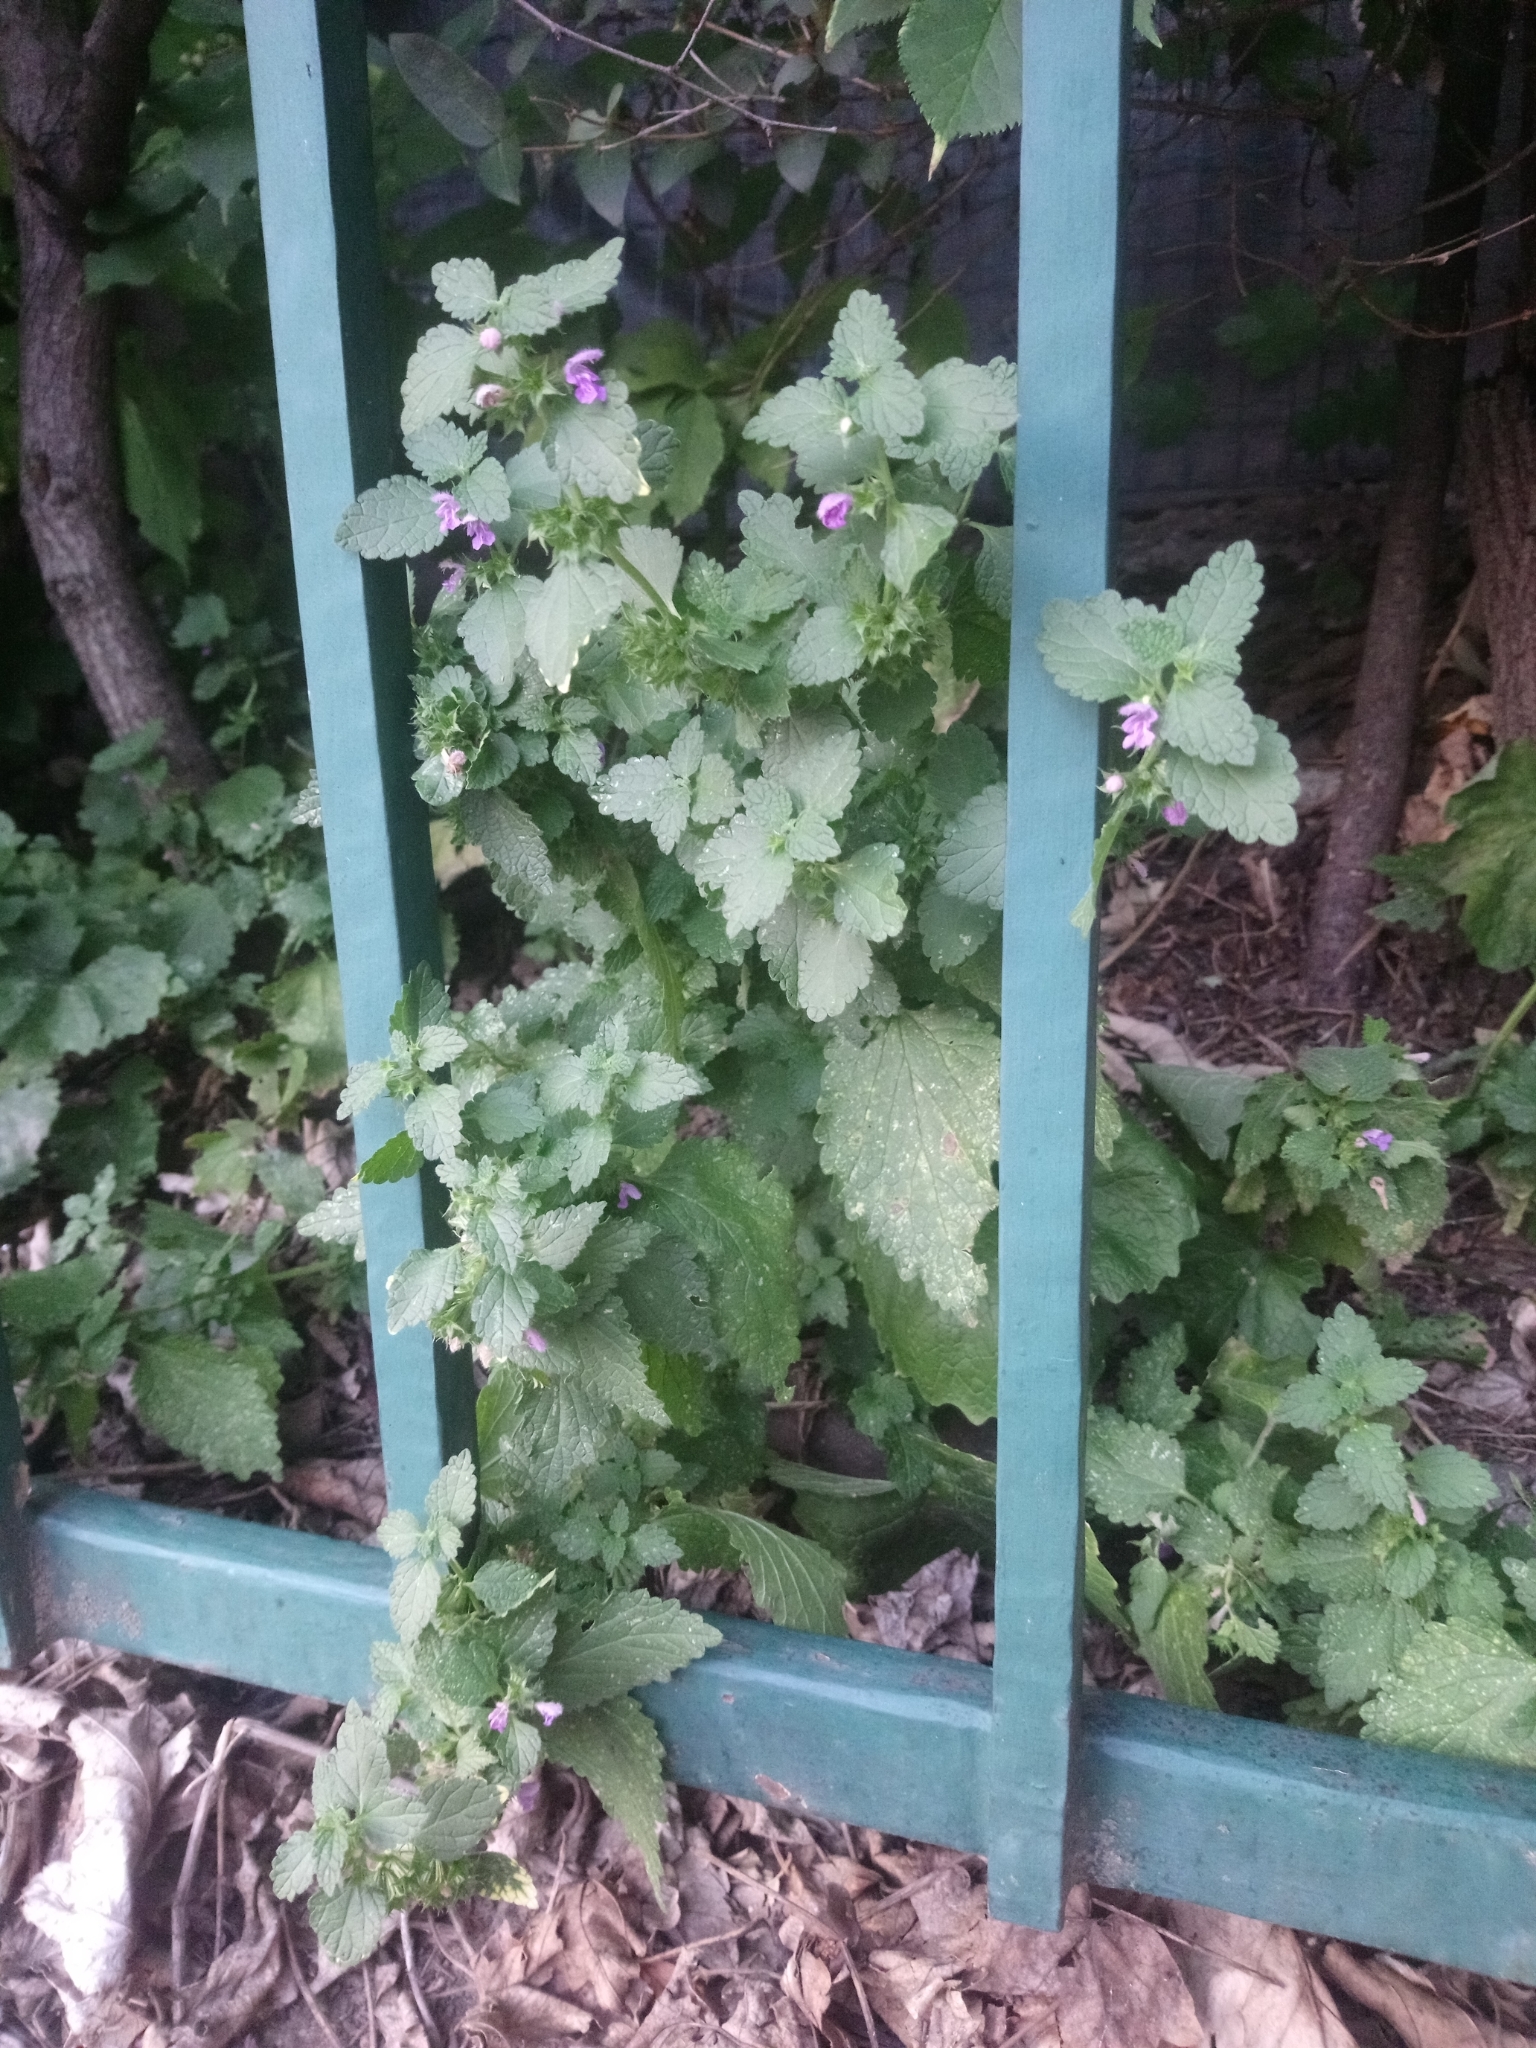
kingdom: Plantae
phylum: Tracheophyta
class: Magnoliopsida
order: Lamiales
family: Lamiaceae
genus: Ballota
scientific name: Ballota nigra
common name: Black horehound
